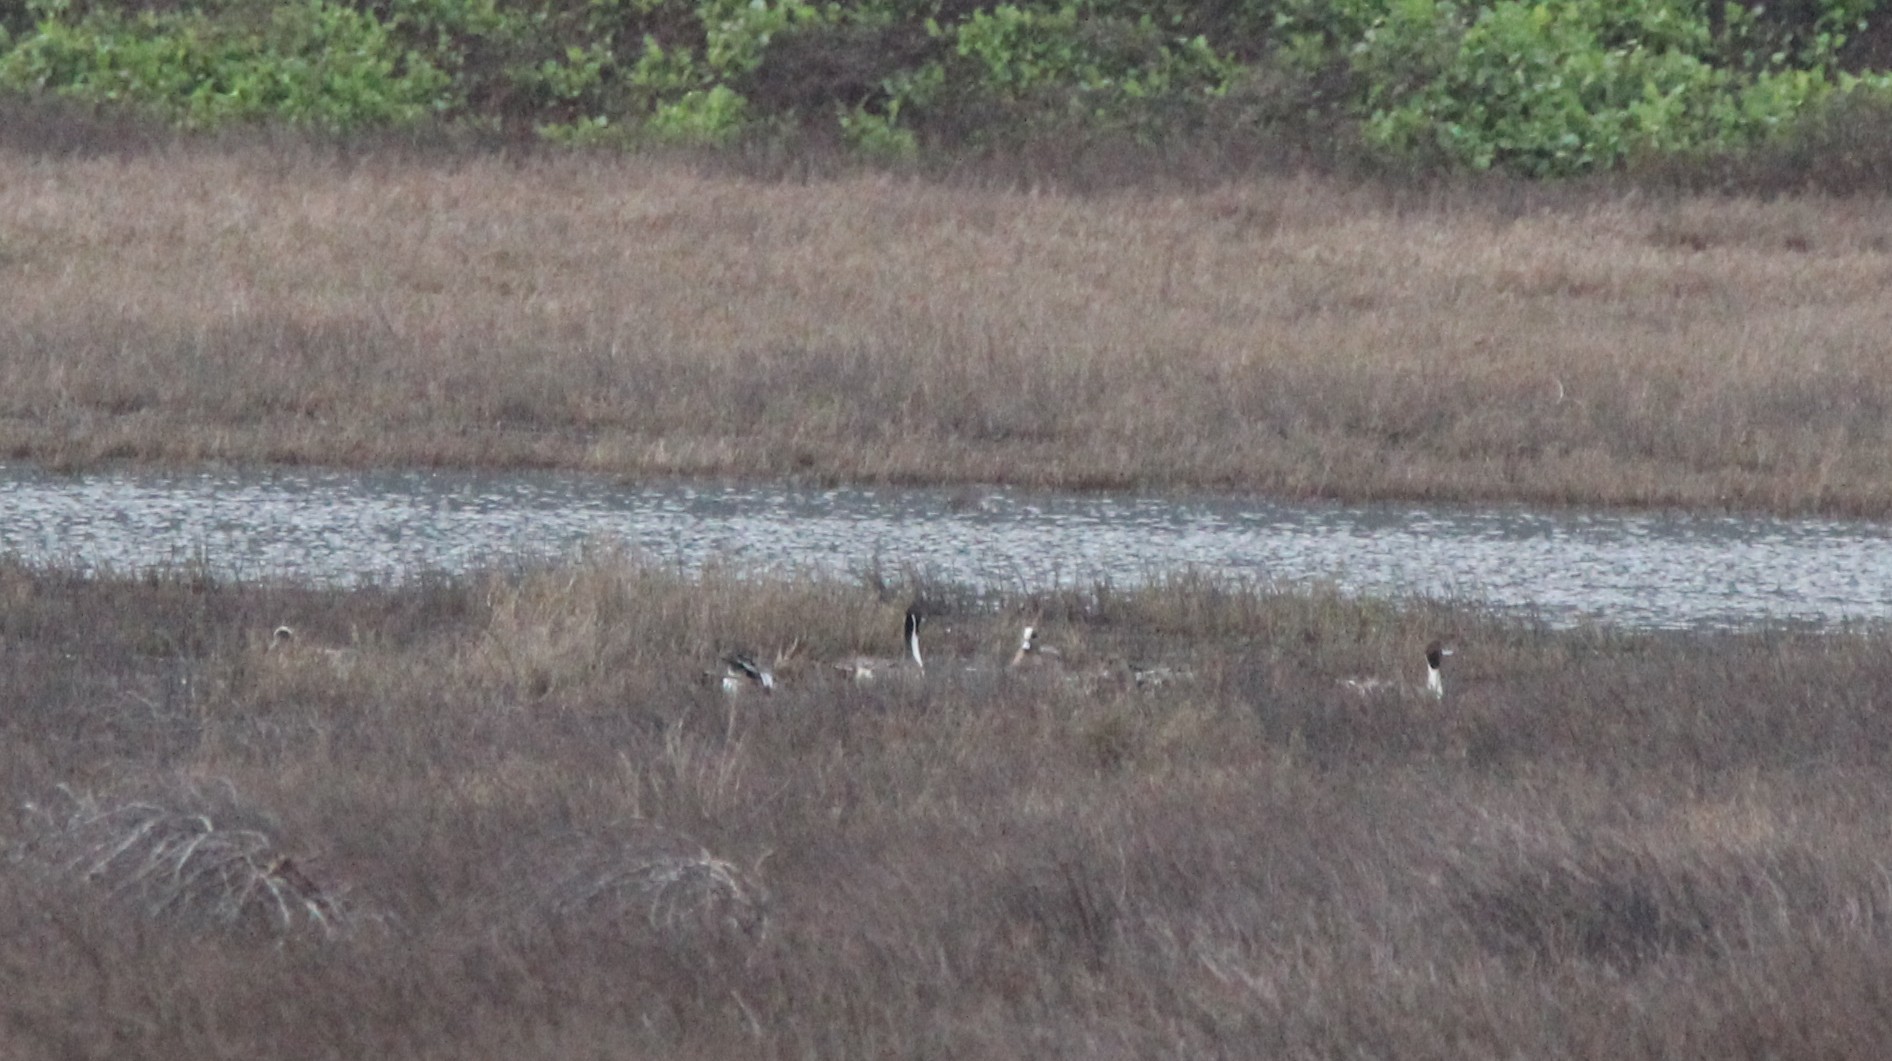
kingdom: Animalia
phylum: Chordata
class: Aves
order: Anseriformes
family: Anatidae
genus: Anas
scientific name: Anas acuta
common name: Northern pintail
